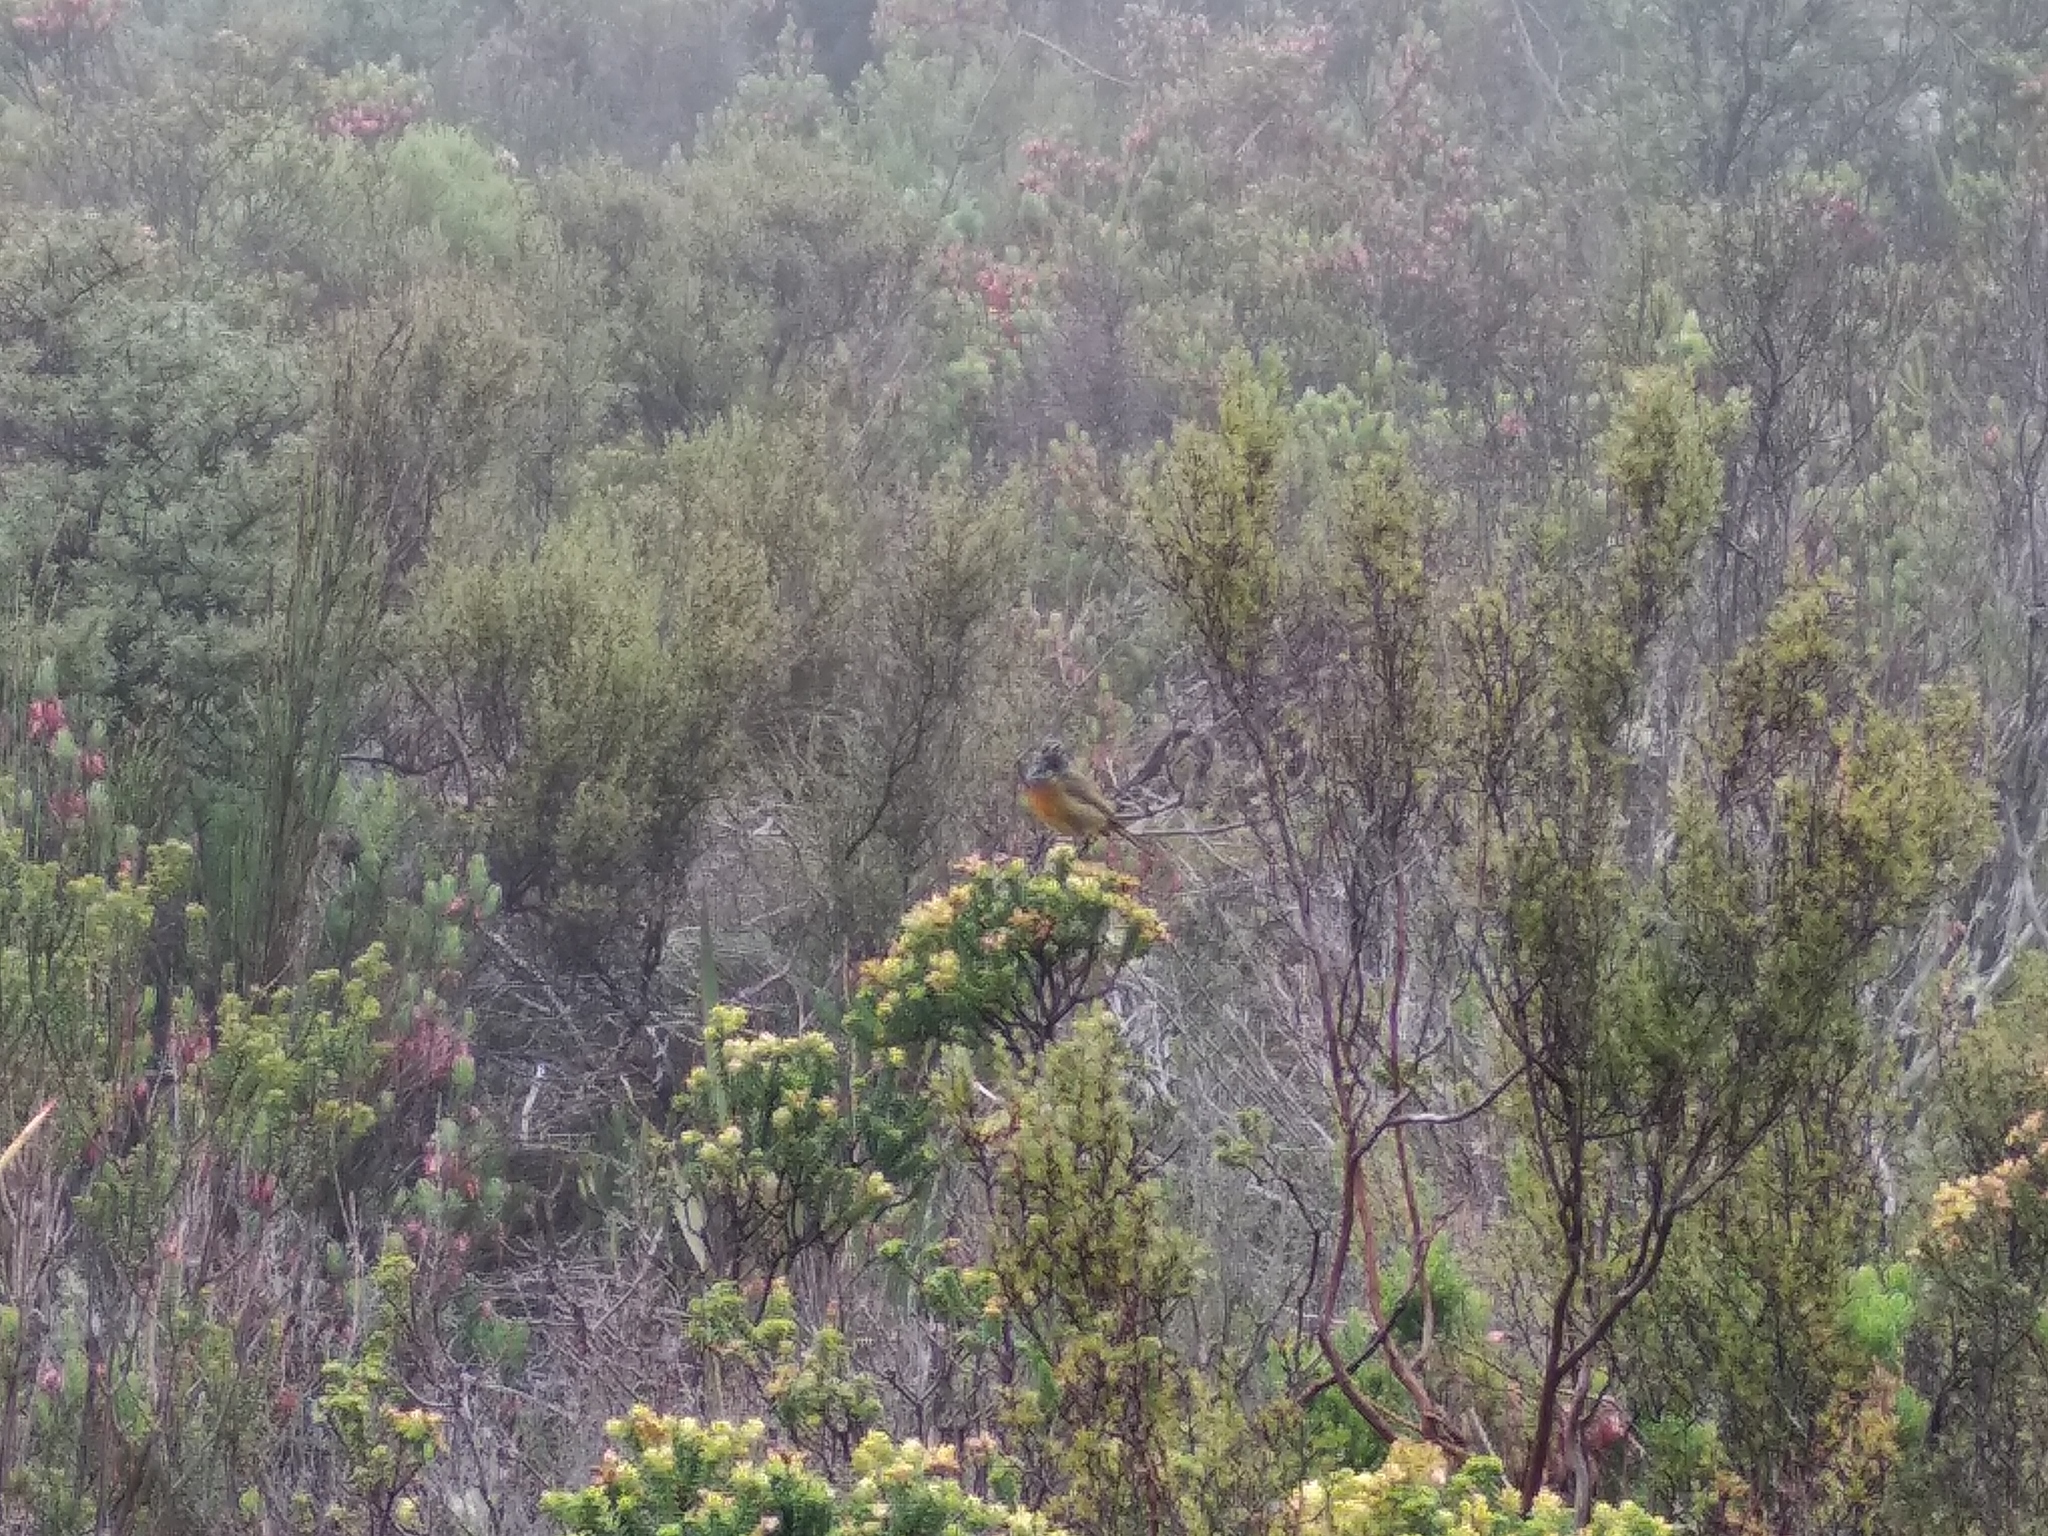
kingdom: Animalia
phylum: Chordata
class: Aves
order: Passeriformes
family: Nectariniidae
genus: Anthobaphes
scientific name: Anthobaphes violacea
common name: Orange-breasted sunbird
